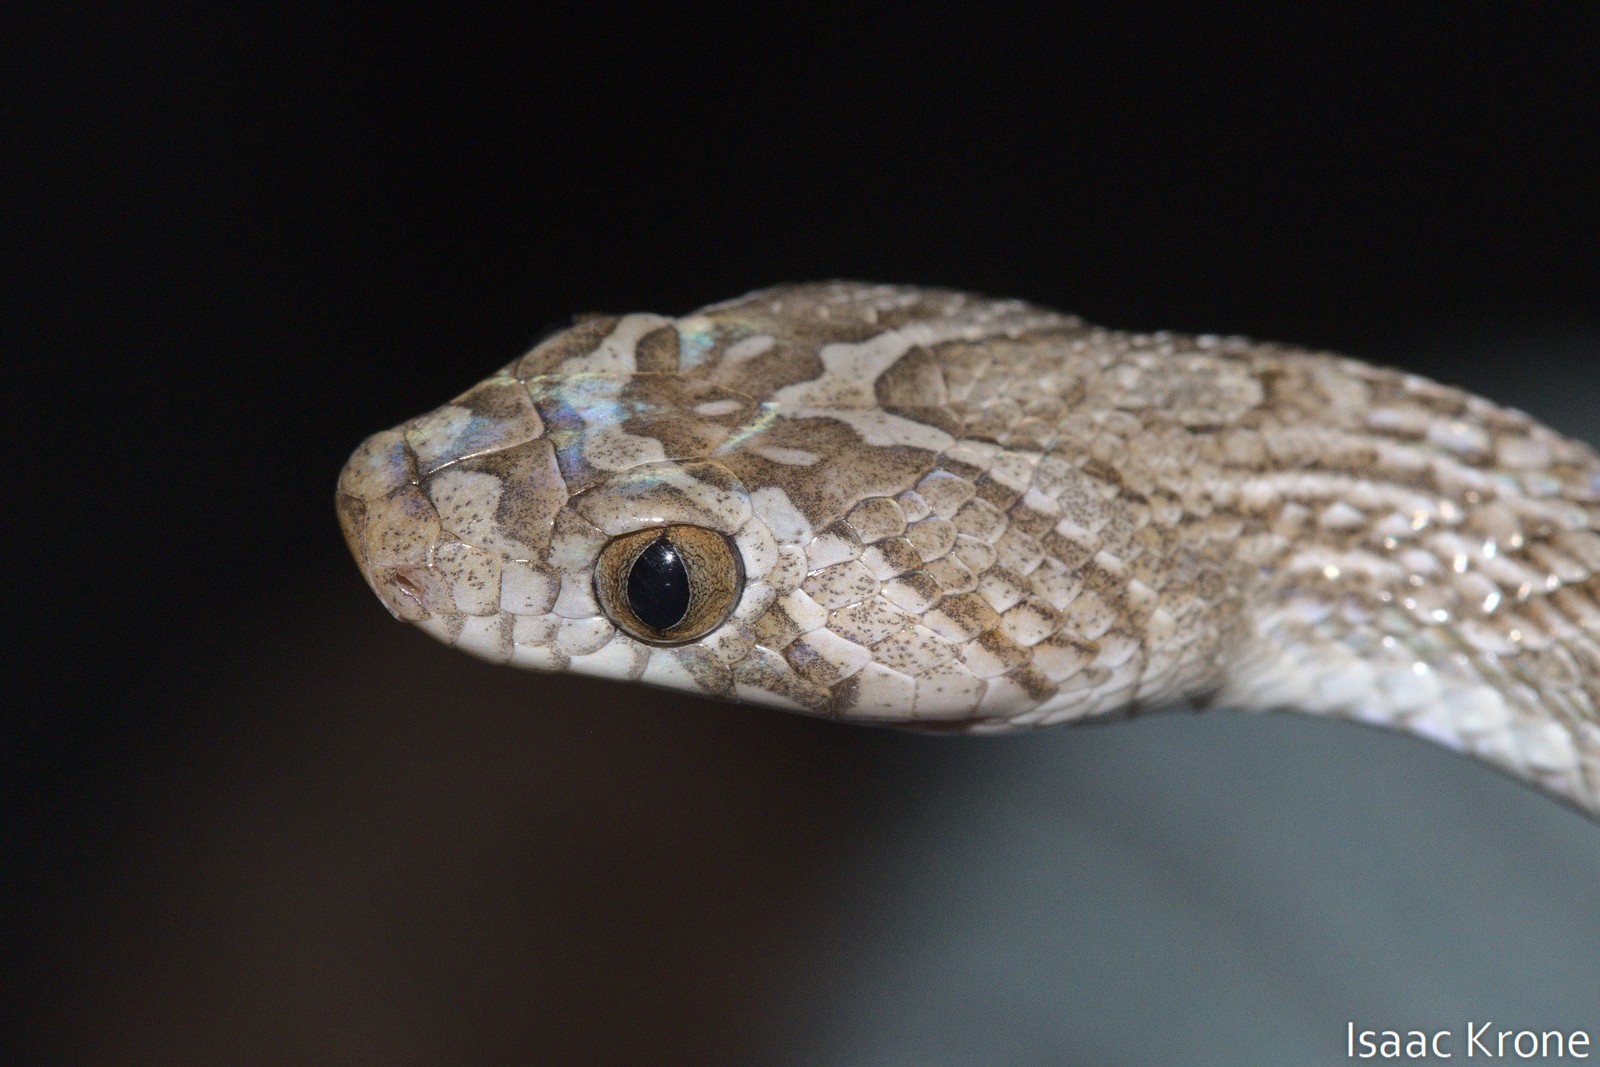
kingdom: Animalia
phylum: Chordata
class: Squamata
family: Colubridae
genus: Trimorphodon
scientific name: Trimorphodon lambda
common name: Sonoran lyre snake
